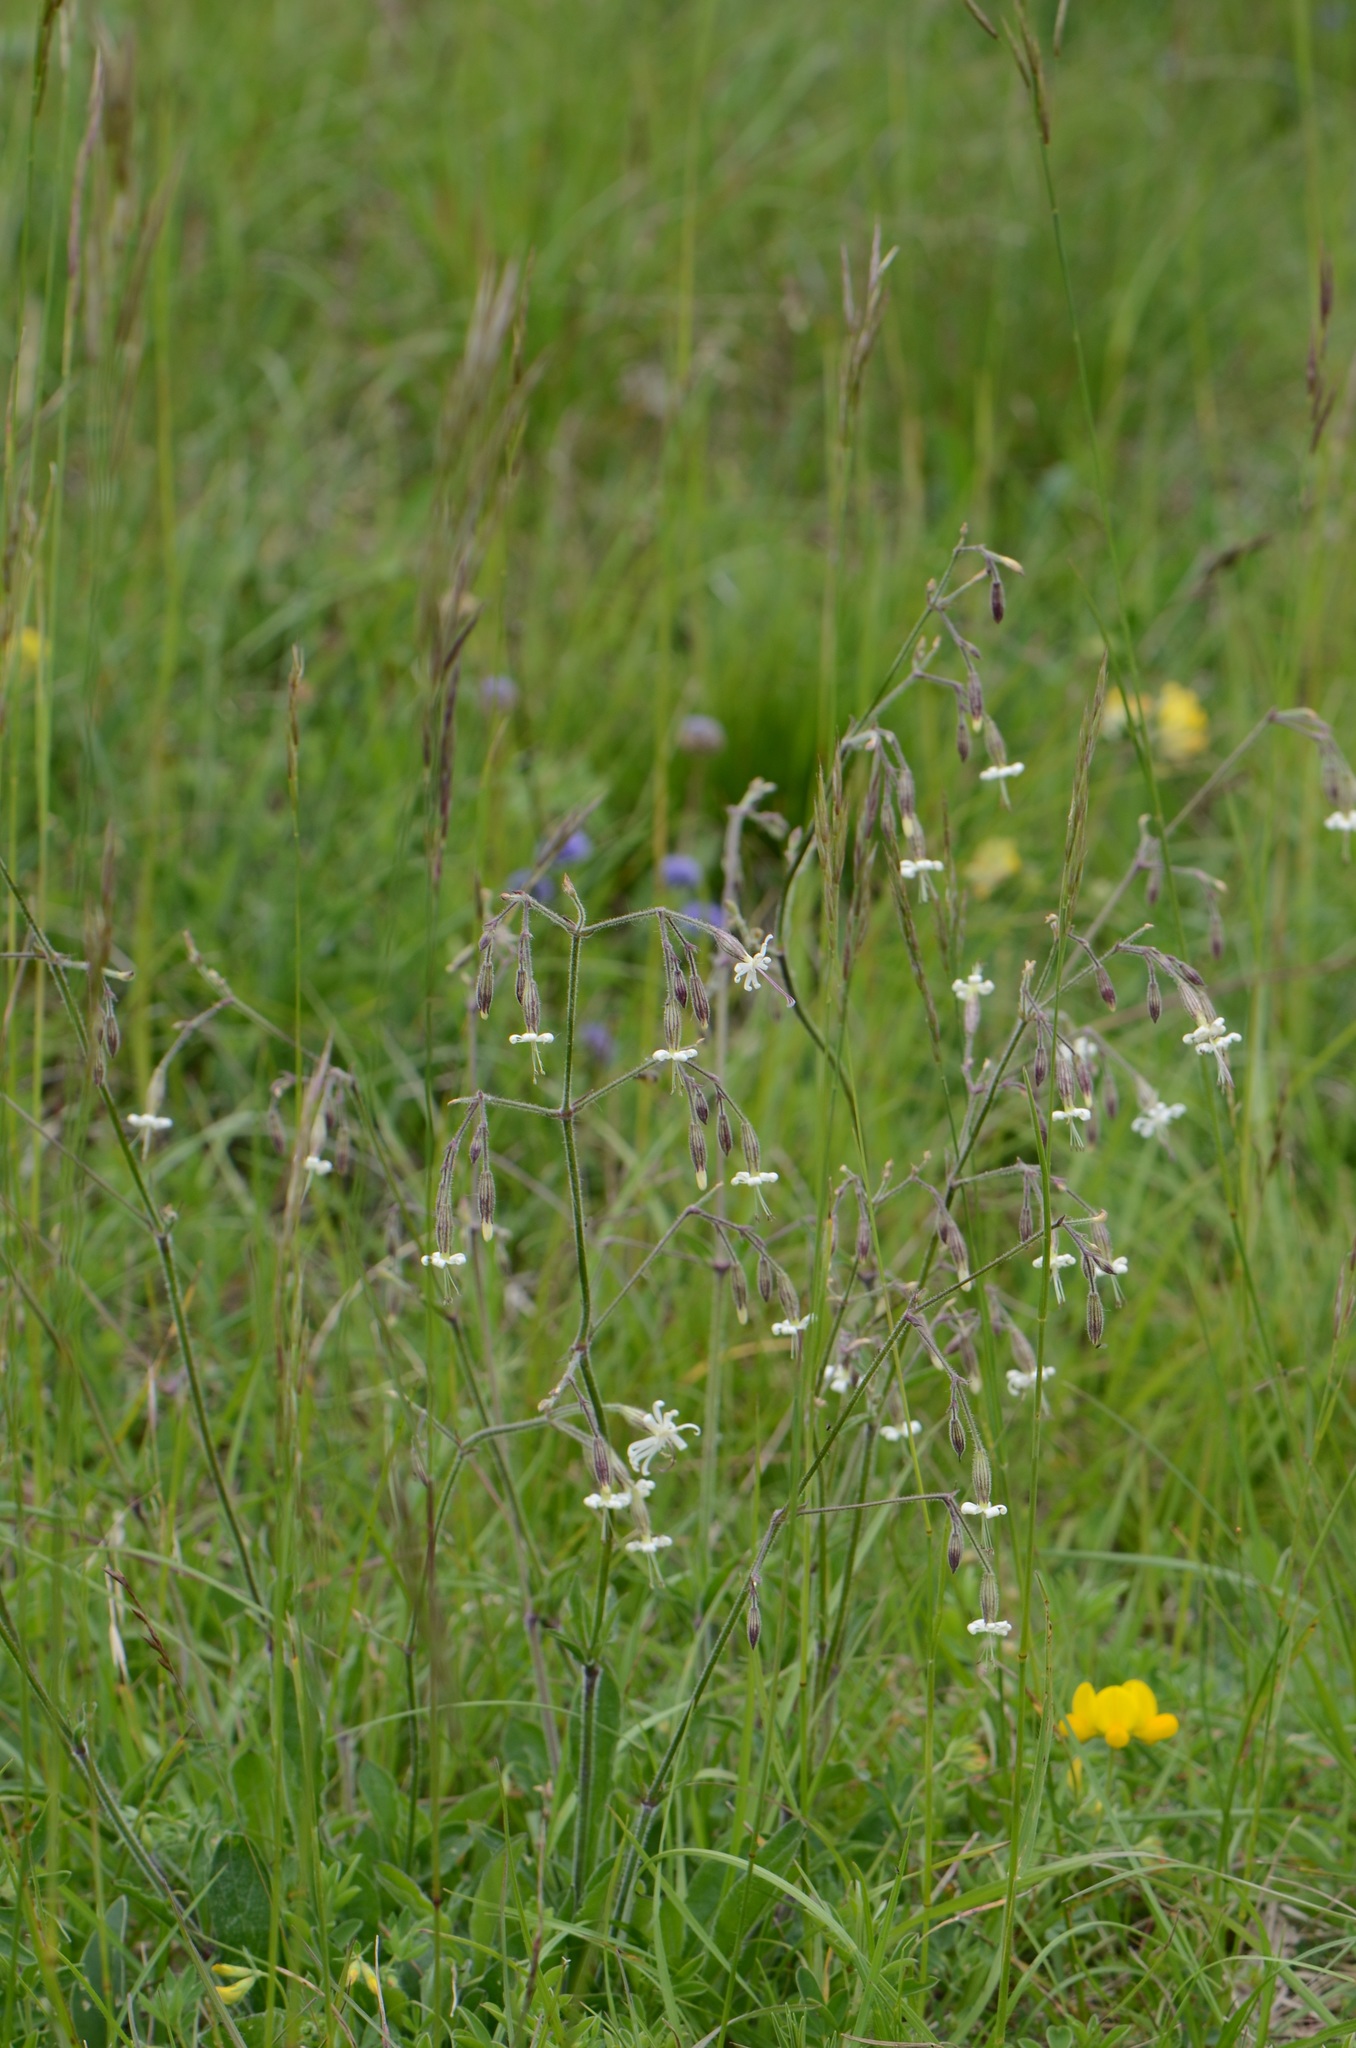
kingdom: Plantae
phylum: Tracheophyta
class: Magnoliopsida
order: Caryophyllales
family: Caryophyllaceae
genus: Silene
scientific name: Silene nutans
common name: Nottingham catchfly
